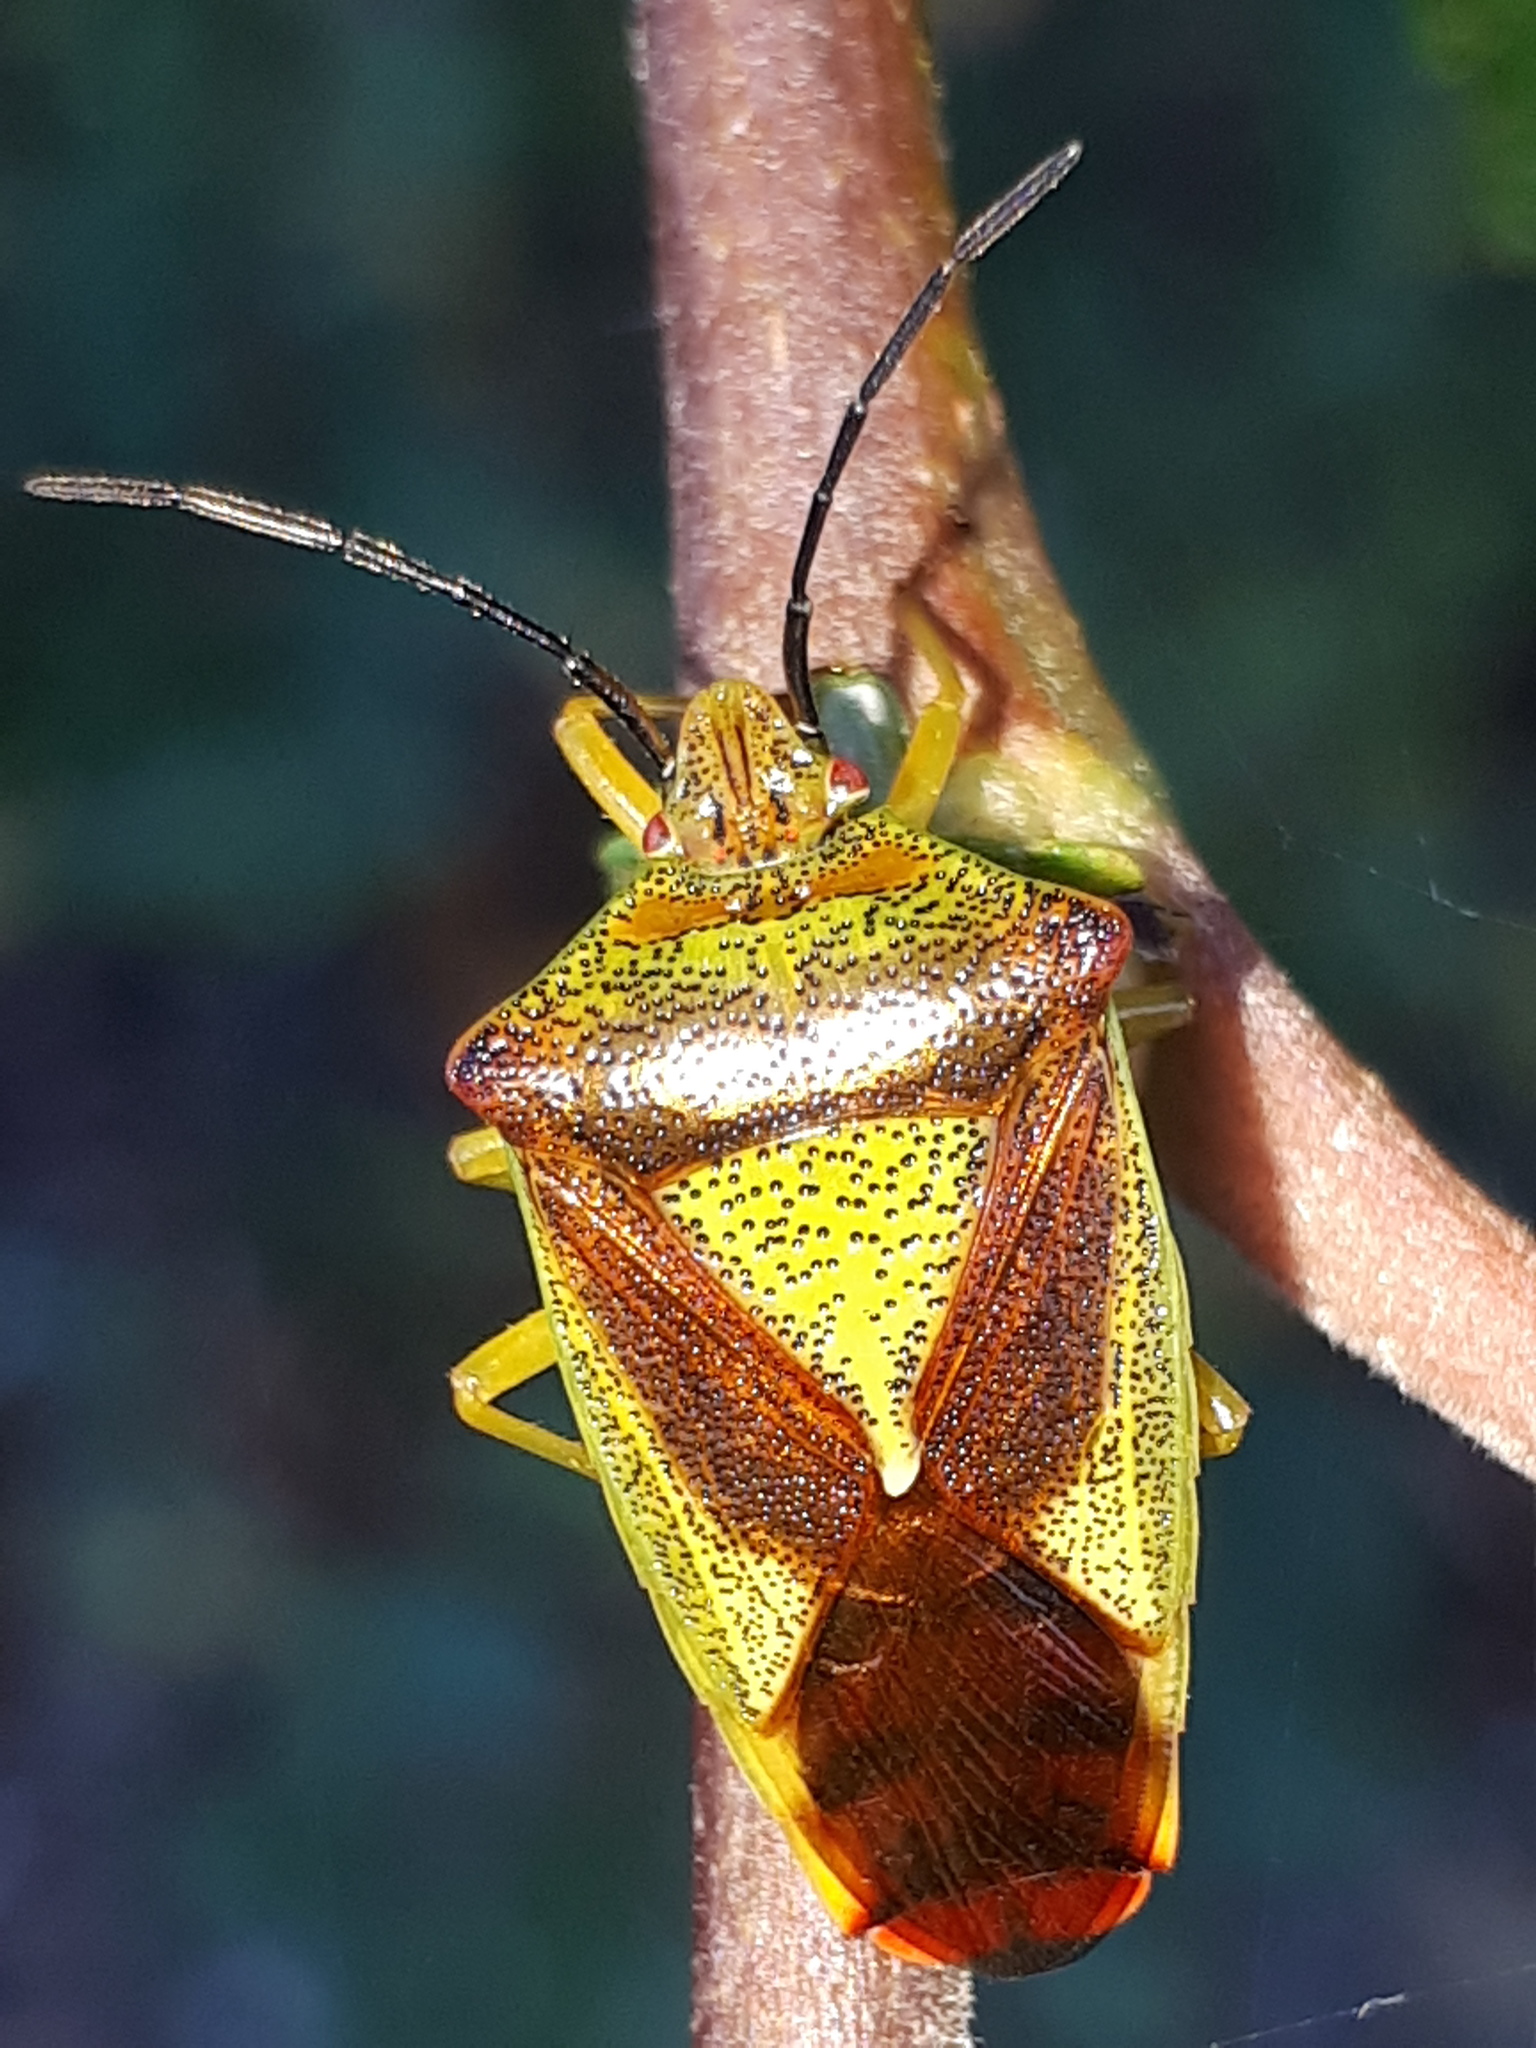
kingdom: Animalia
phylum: Arthropoda
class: Insecta
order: Hemiptera
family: Acanthosomatidae
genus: Acanthosoma
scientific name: Acanthosoma haemorrhoidale
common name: Hawthorn shieldbug
